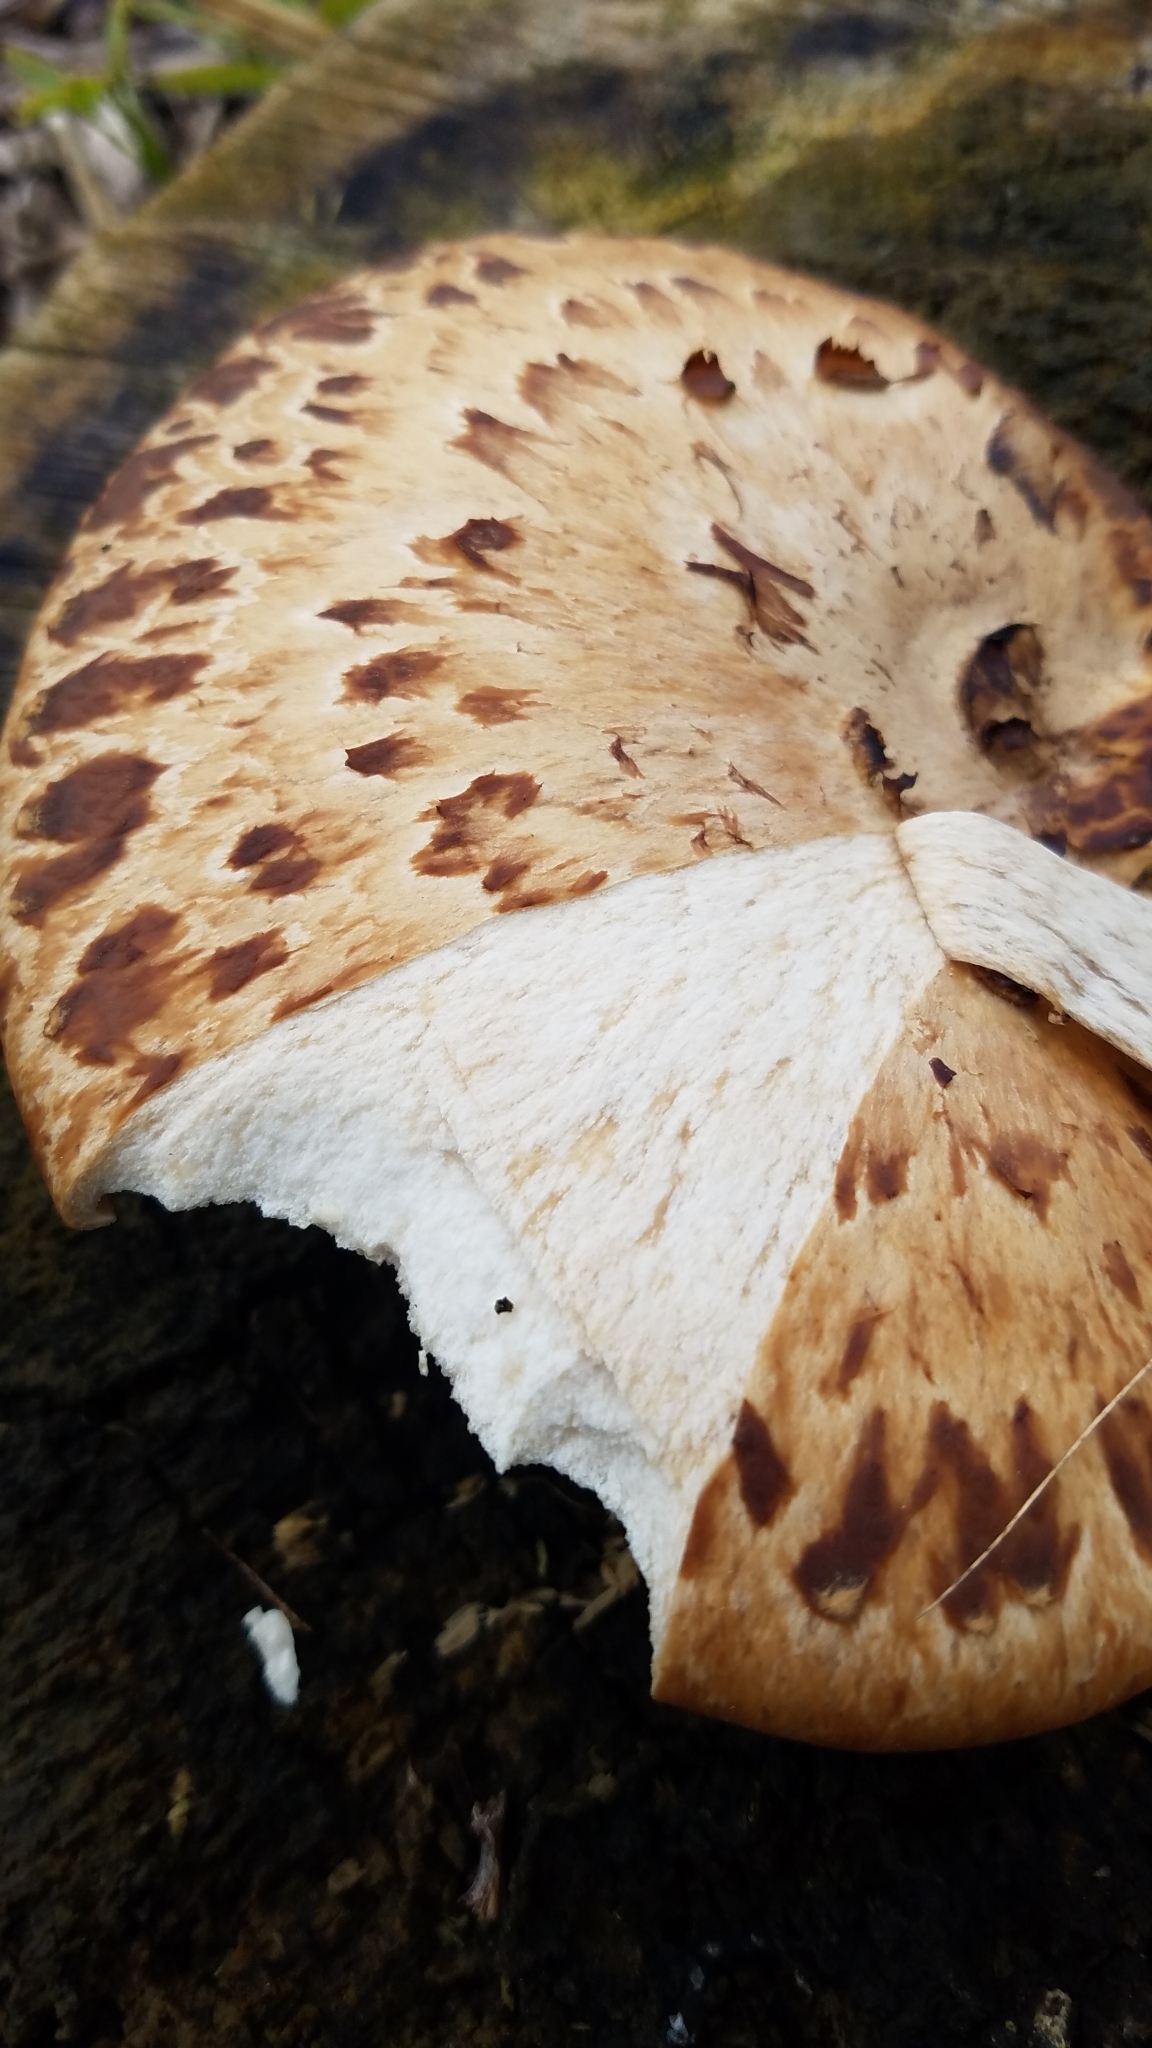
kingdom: Fungi
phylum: Basidiomycota
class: Agaricomycetes
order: Polyporales
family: Polyporaceae
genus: Cerioporus
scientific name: Cerioporus squamosus
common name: Dryad's saddle
